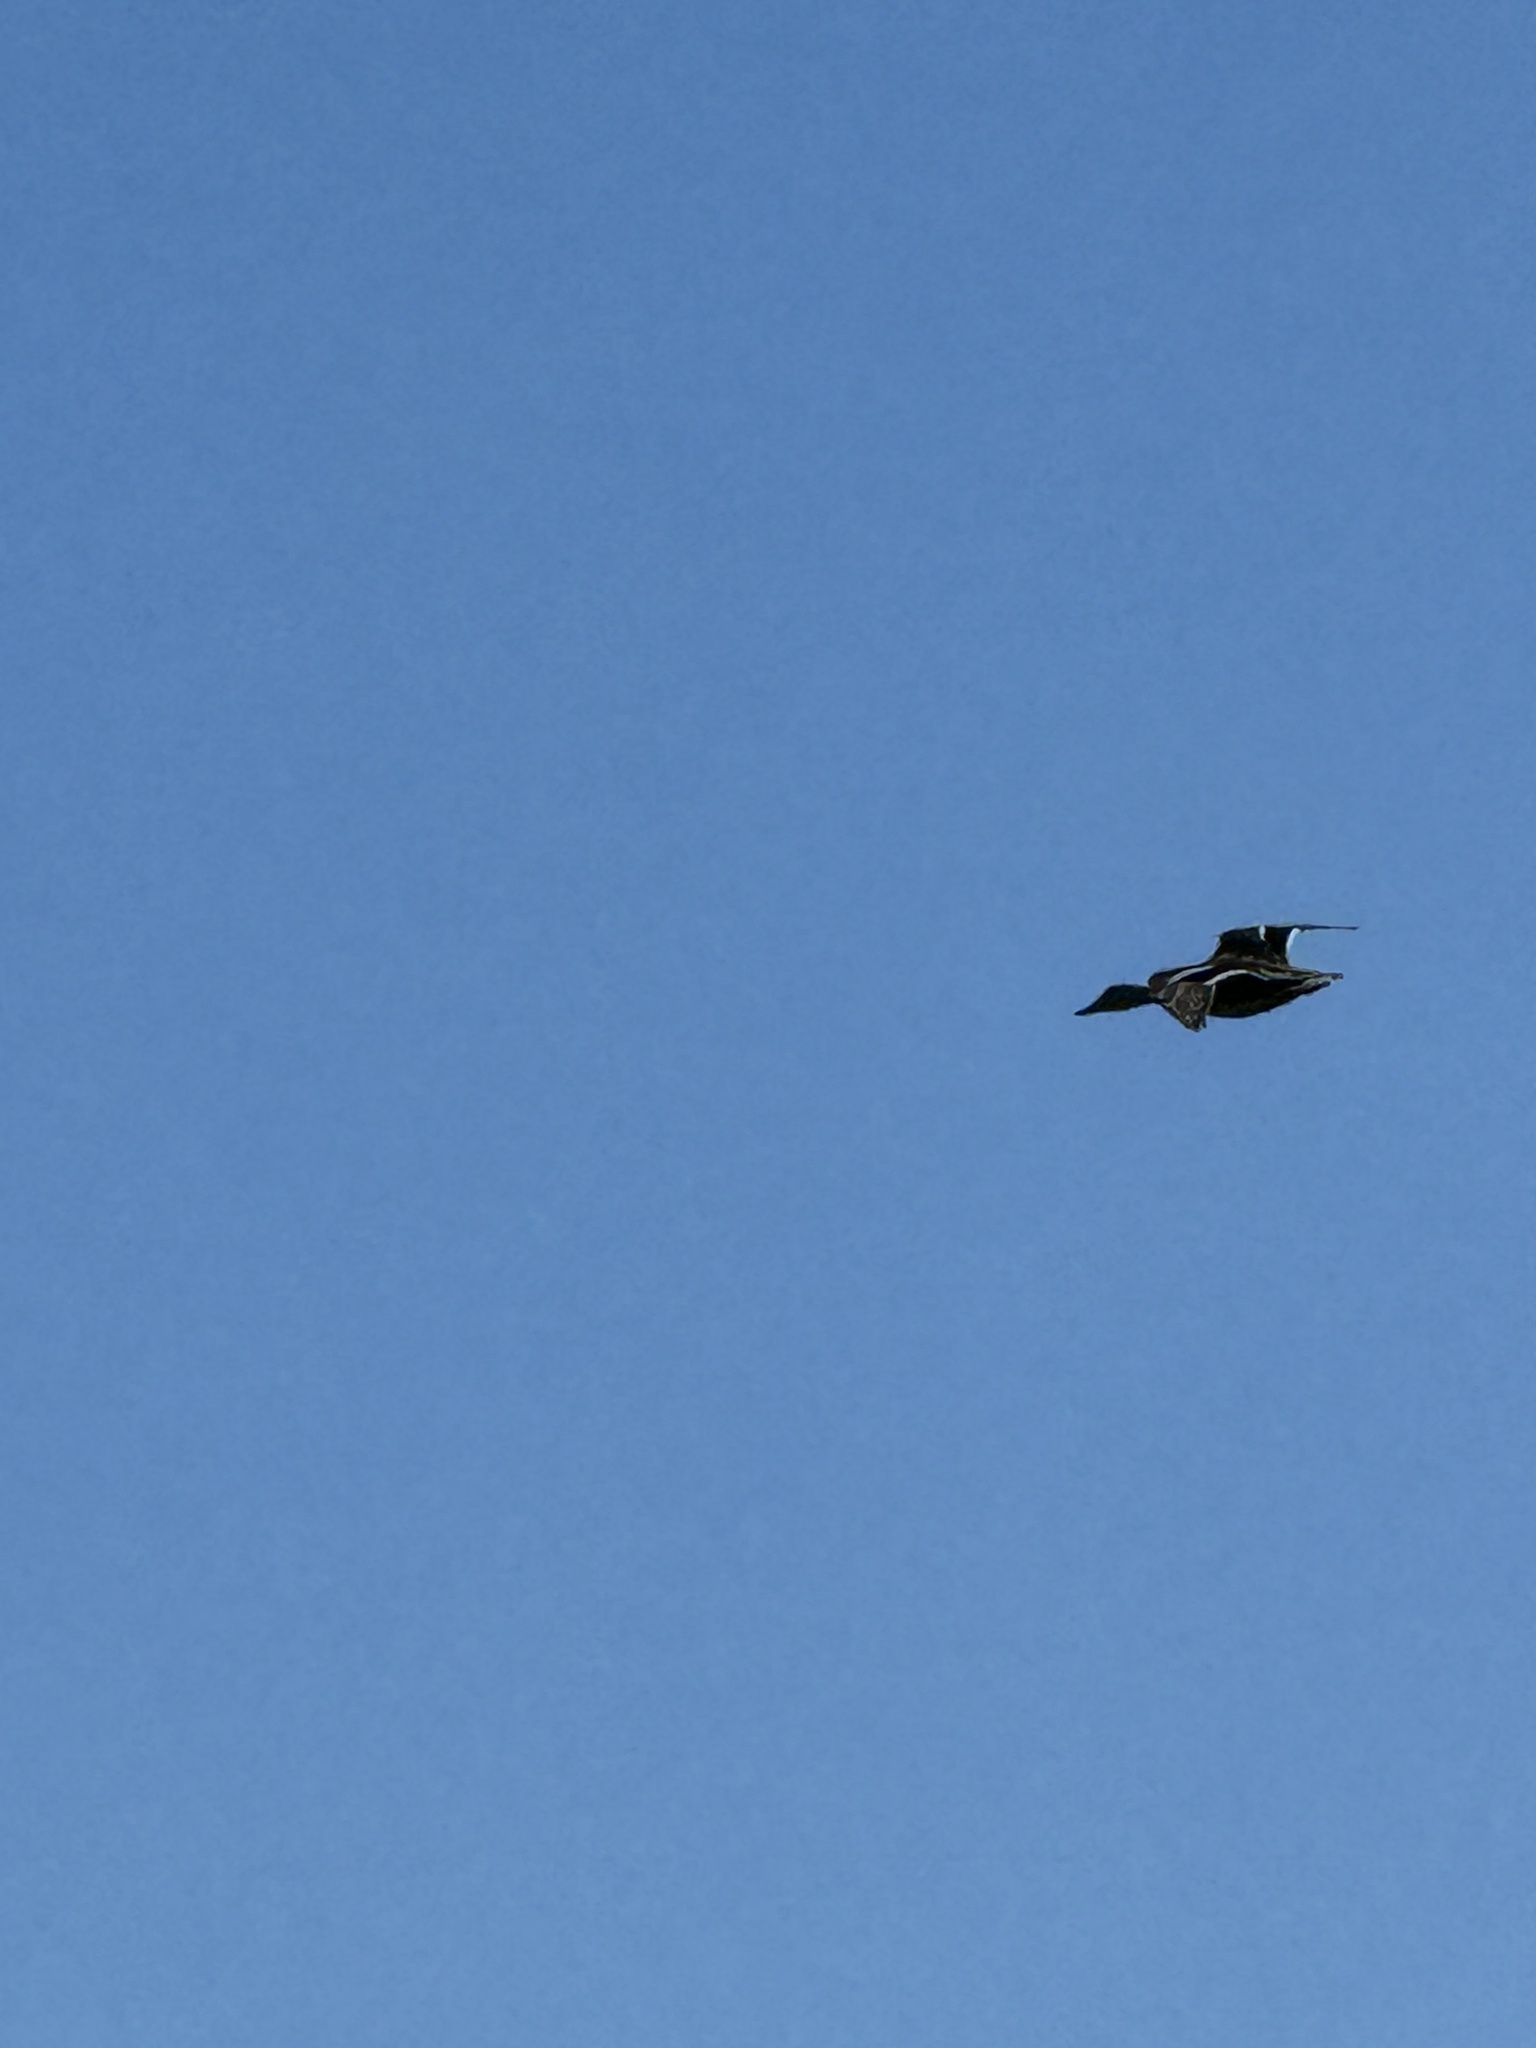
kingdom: Animalia
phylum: Chordata
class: Aves
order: Anseriformes
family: Anatidae
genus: Anas
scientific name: Anas platyrhynchos
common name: Mallard
